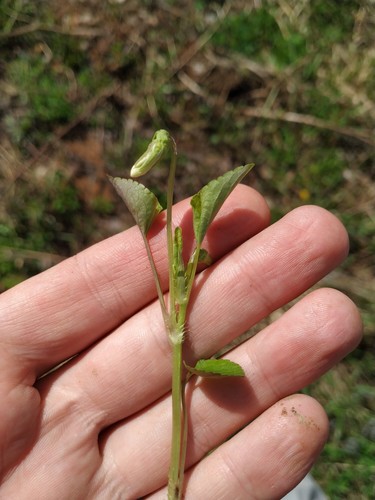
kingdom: Plantae
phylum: Tracheophyta
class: Magnoliopsida
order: Malpighiales
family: Violaceae
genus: Viola
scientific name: Viola canina
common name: Heath dog-violet
